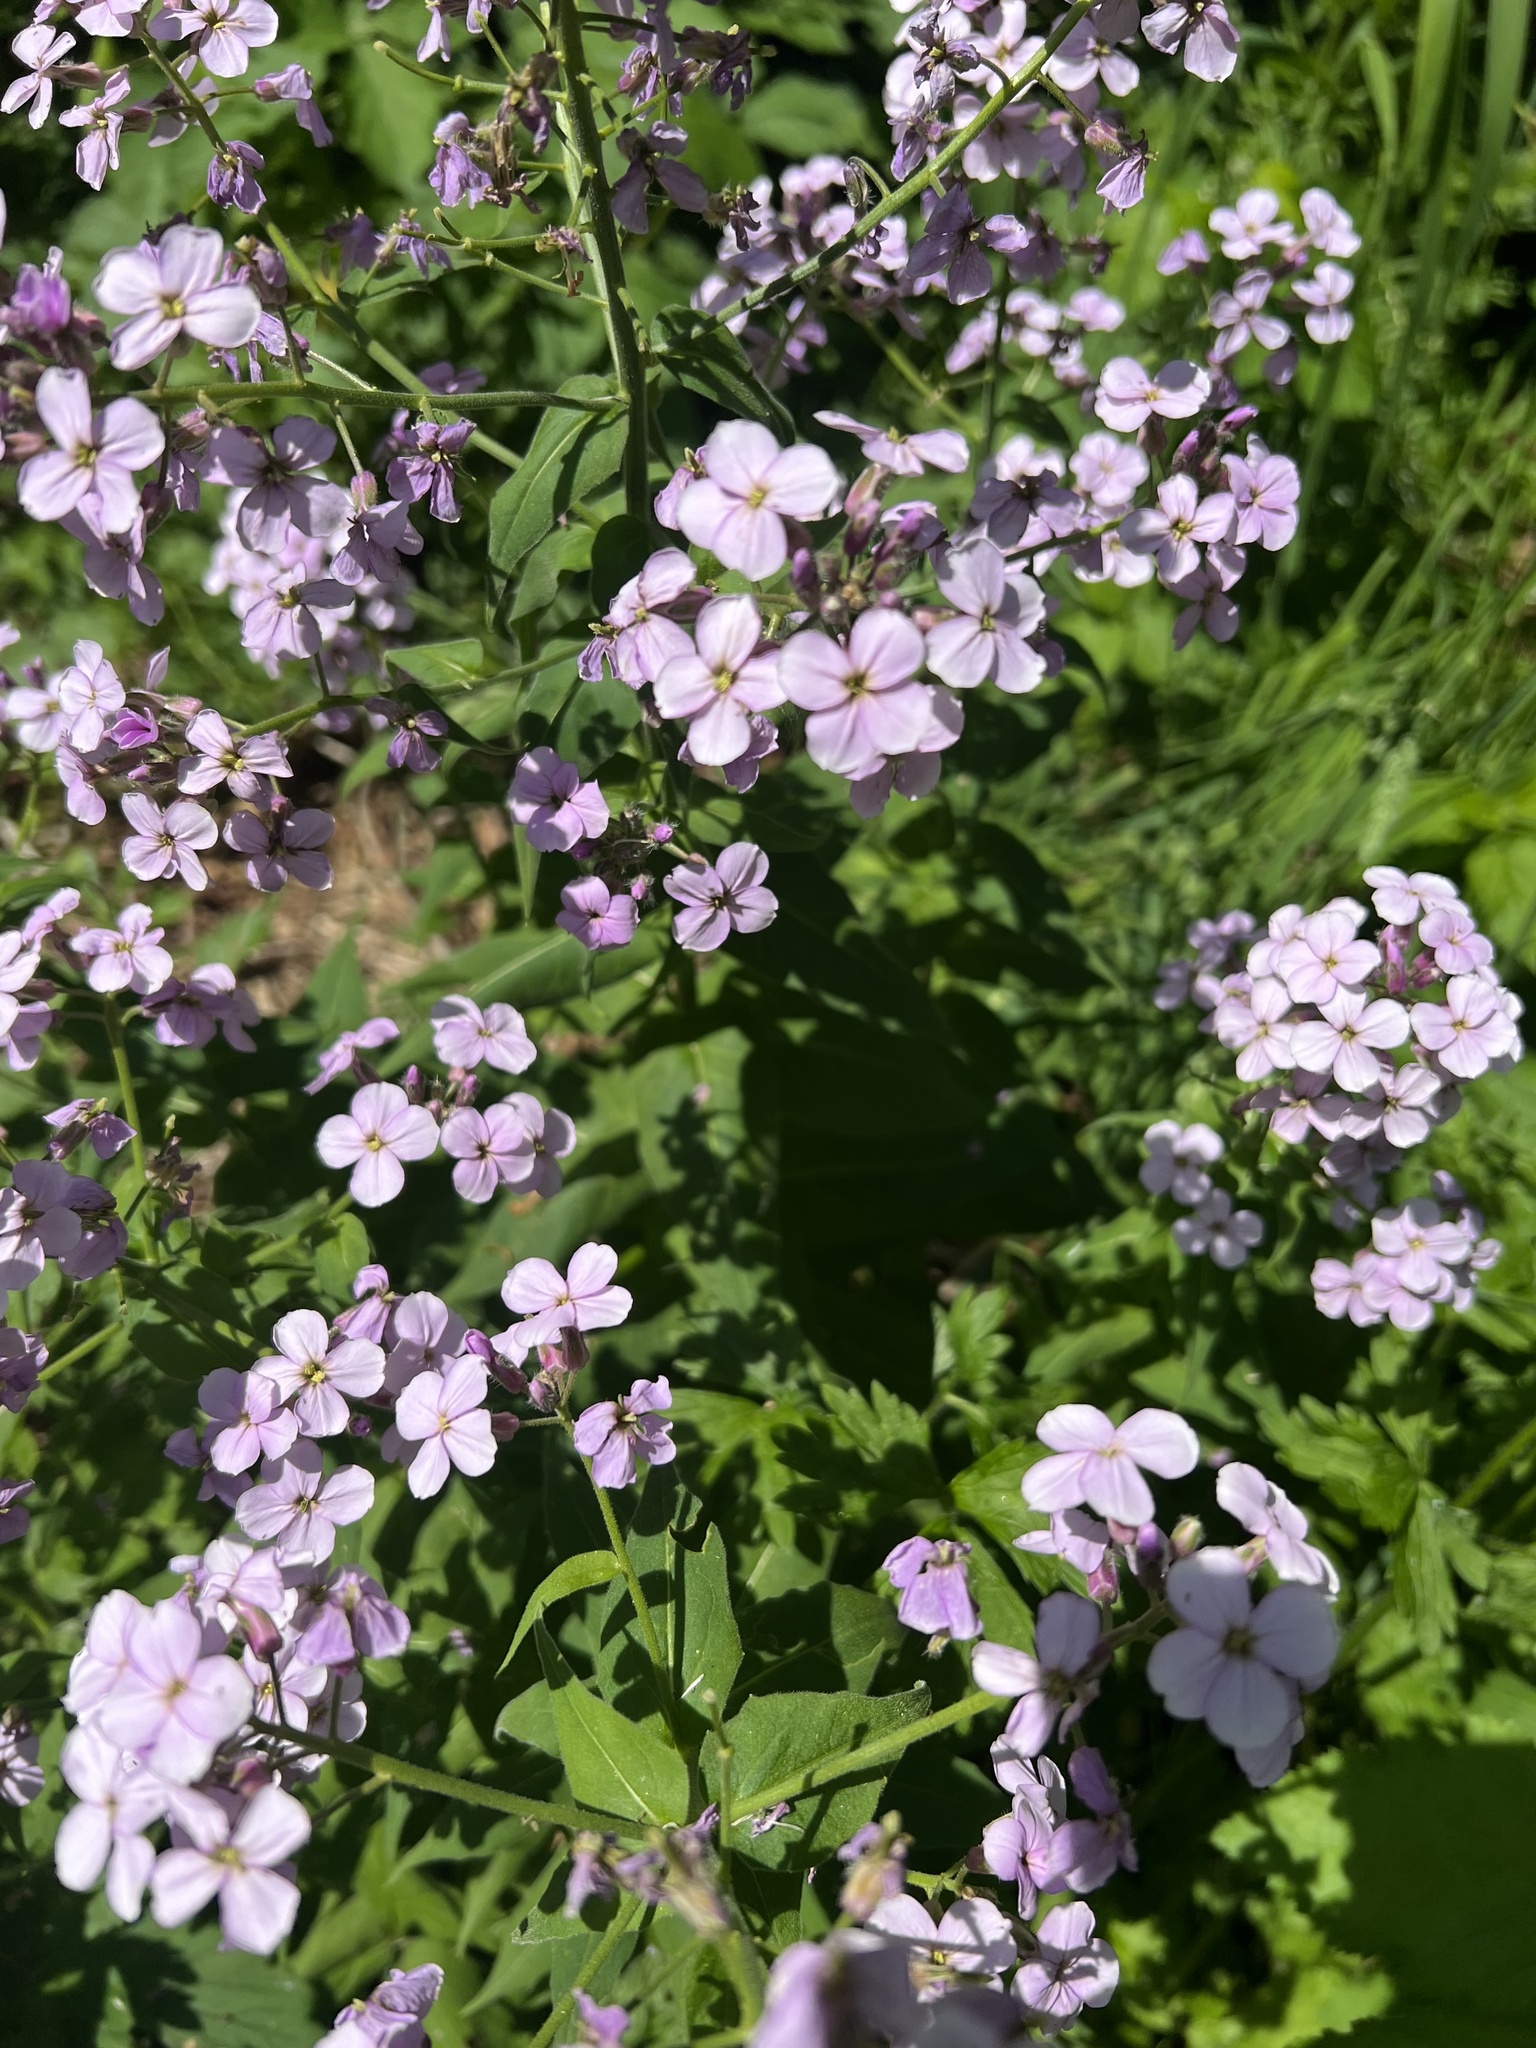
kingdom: Plantae
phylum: Tracheophyta
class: Magnoliopsida
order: Brassicales
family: Brassicaceae
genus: Hesperis
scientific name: Hesperis matronalis
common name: Dame's-violet
